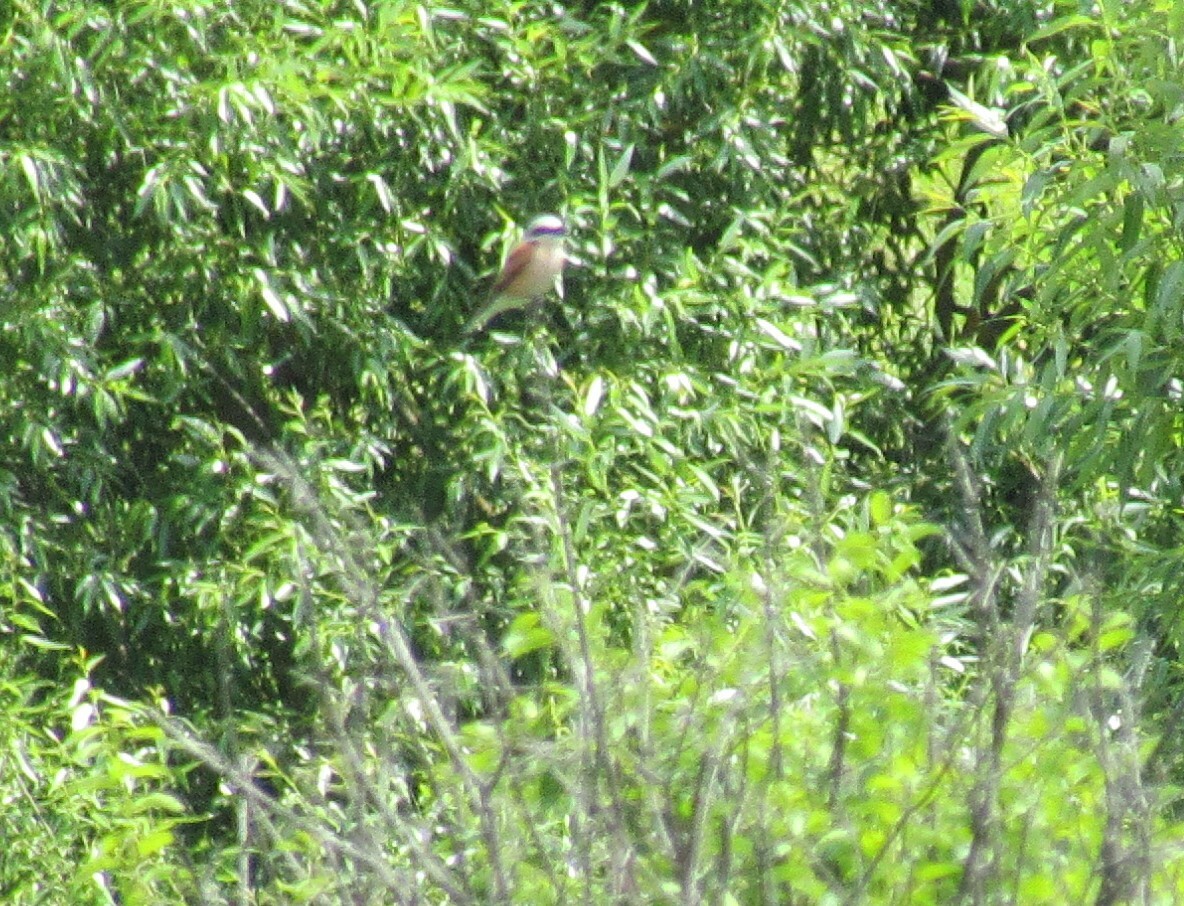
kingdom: Animalia
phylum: Chordata
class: Aves
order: Passeriformes
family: Laniidae
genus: Lanius
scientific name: Lanius collurio
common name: Red-backed shrike
